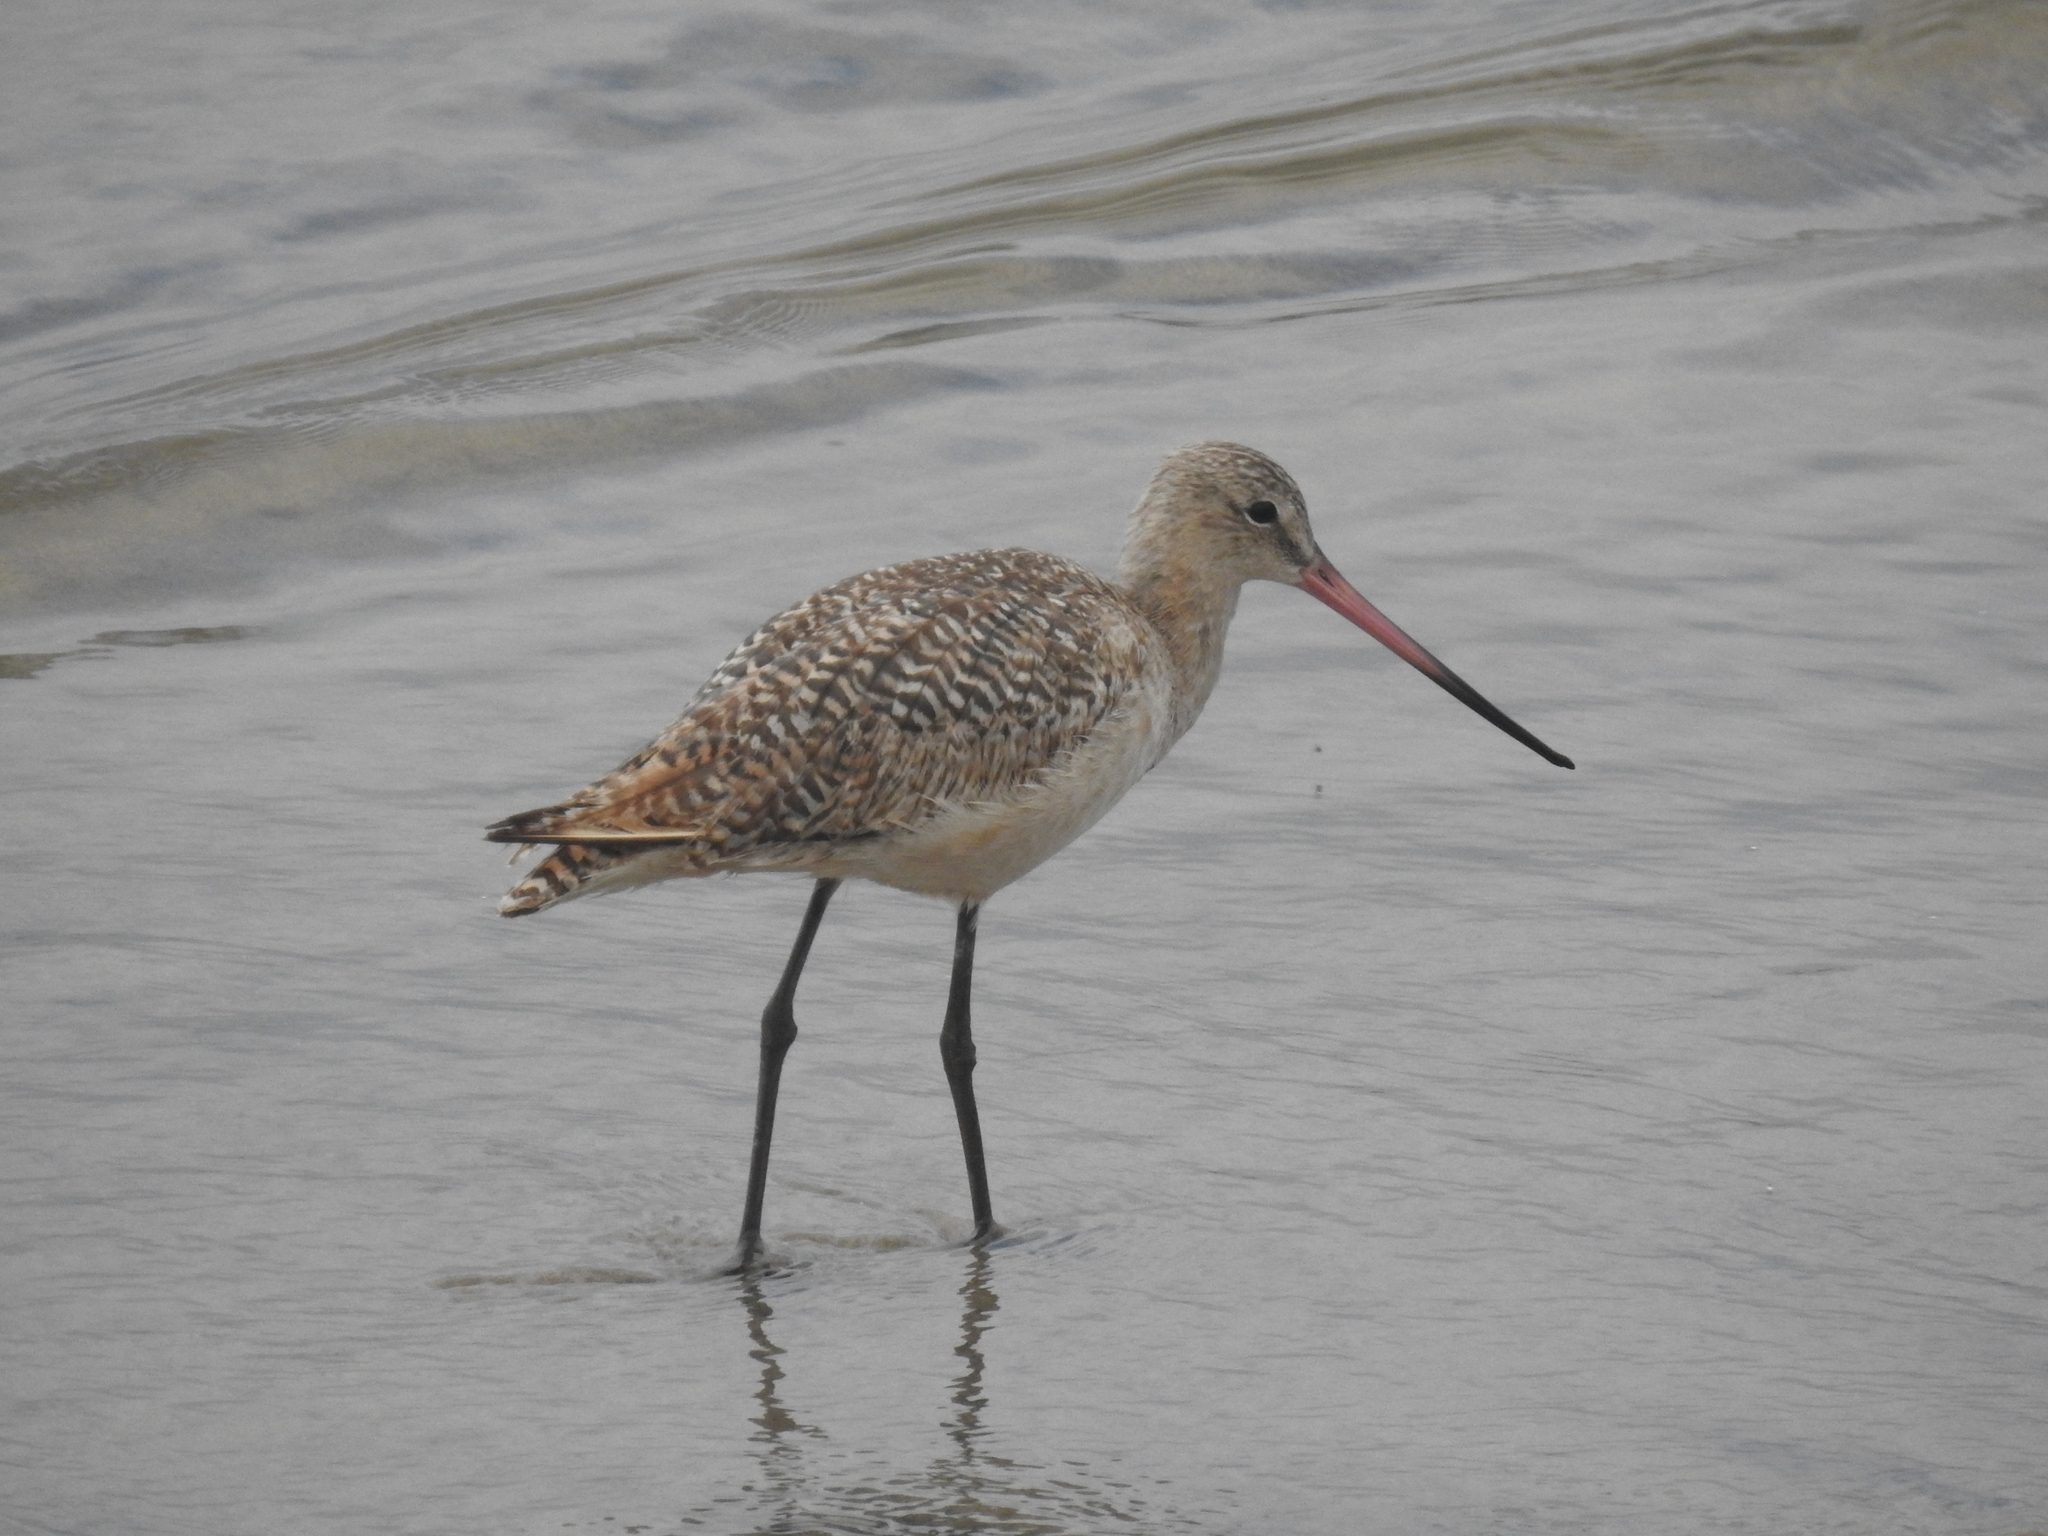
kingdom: Animalia
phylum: Chordata
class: Aves
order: Charadriiformes
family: Scolopacidae
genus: Limosa
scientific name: Limosa fedoa
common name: Marbled godwit
